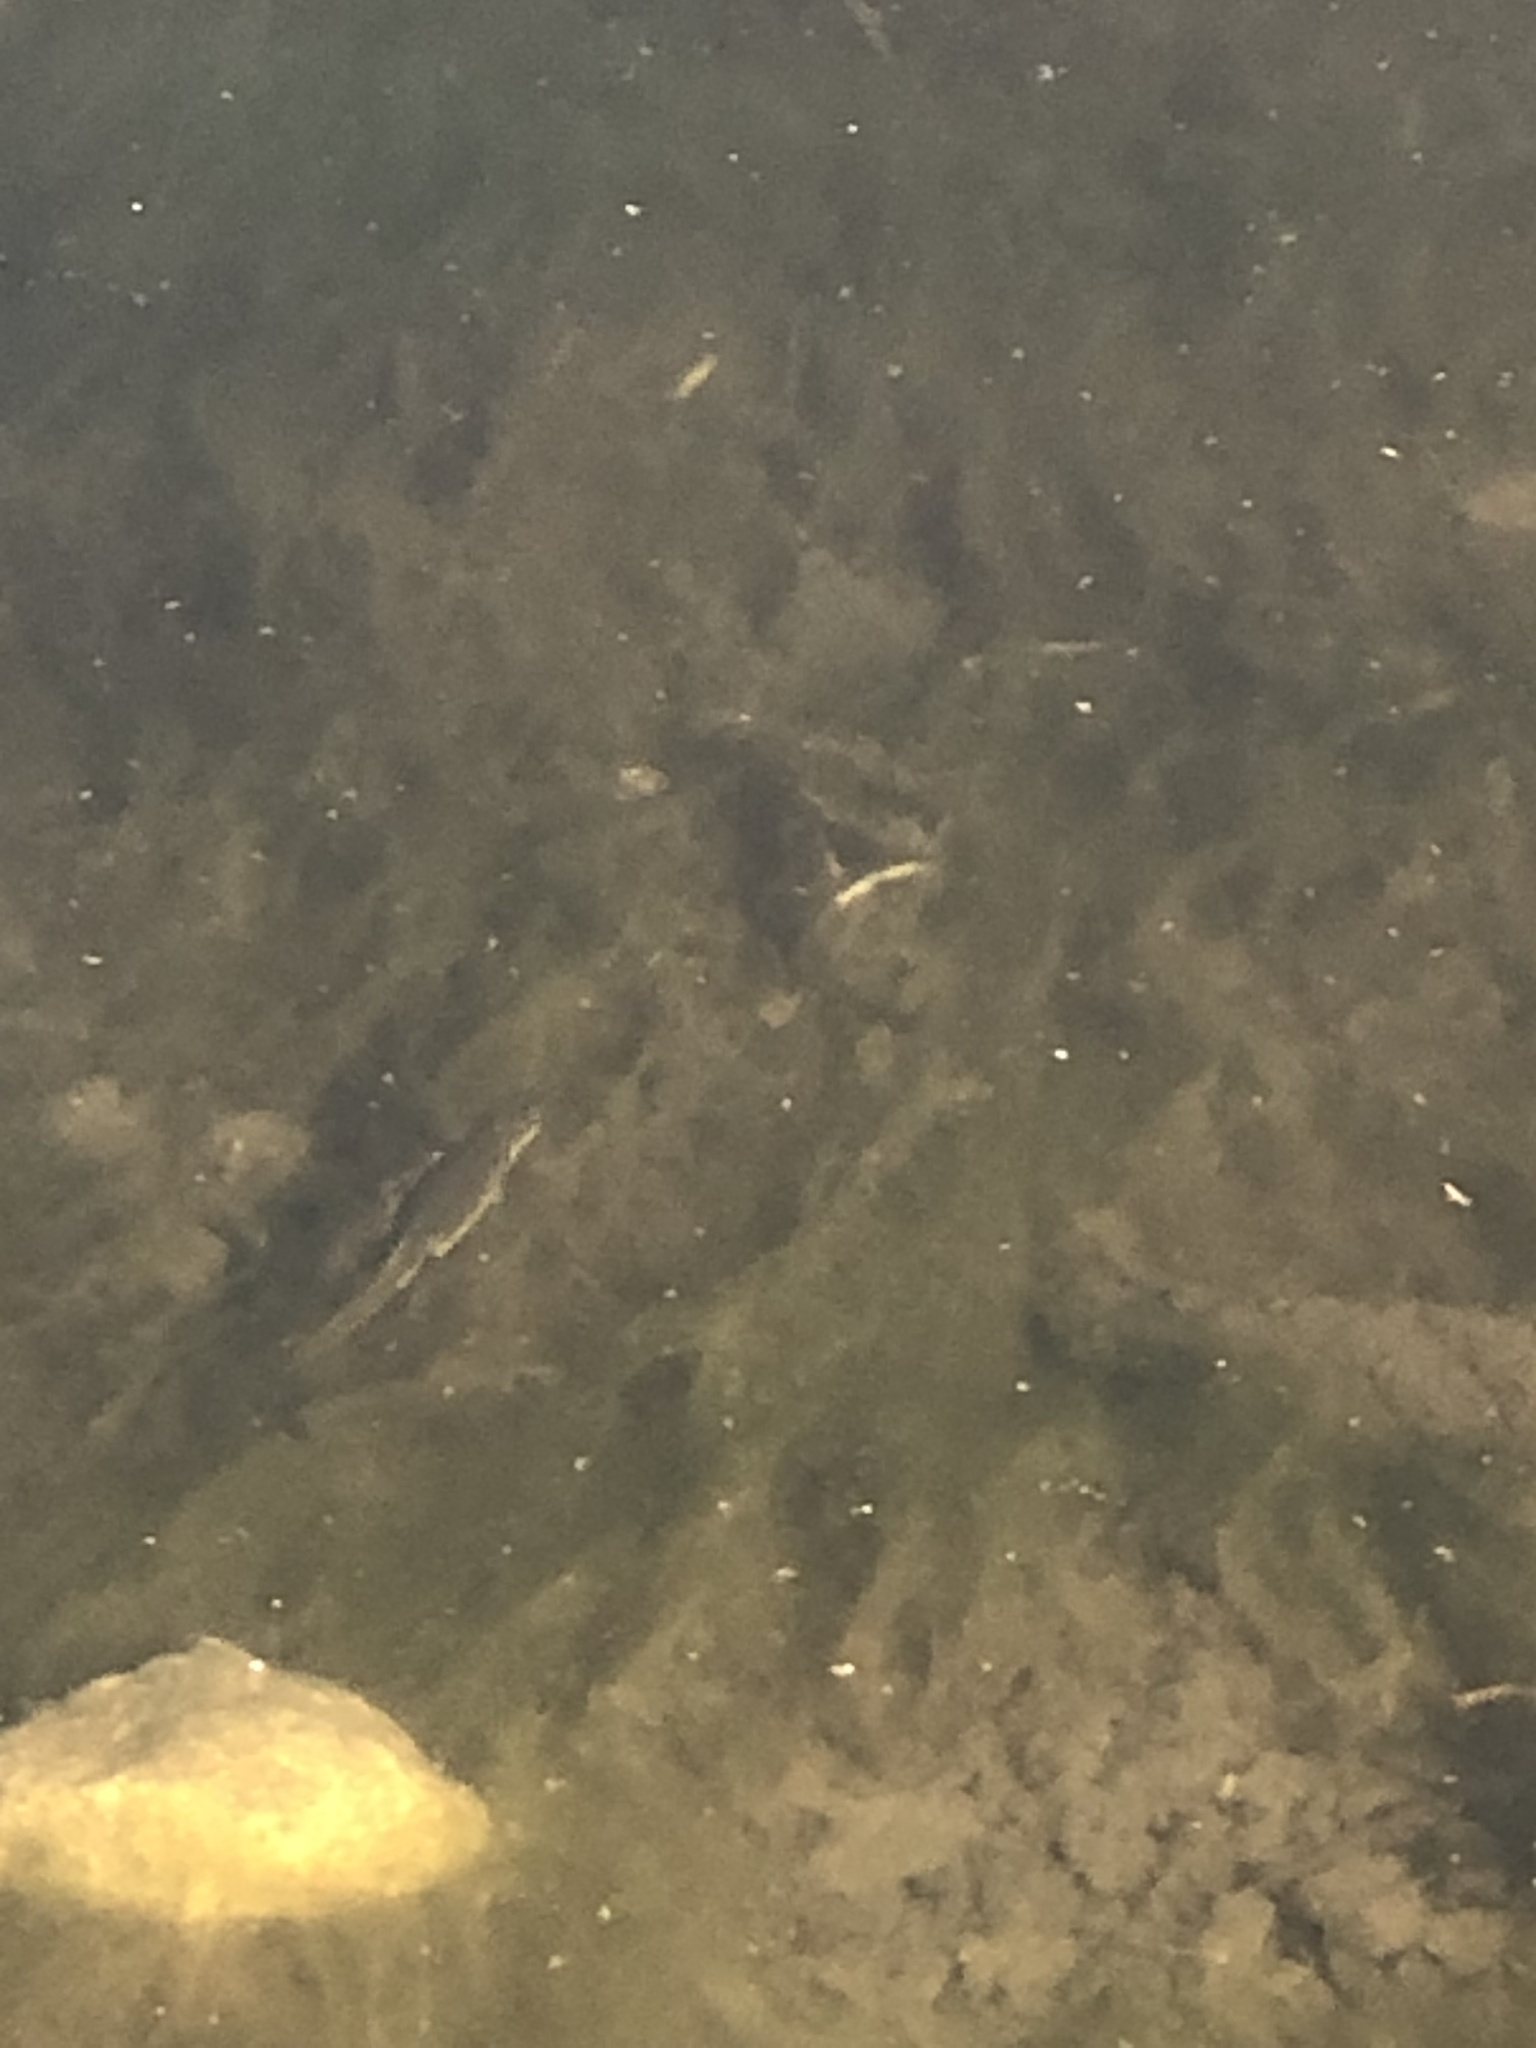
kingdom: Animalia
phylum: Chordata
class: Amphibia
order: Caudata
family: Salamandridae
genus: Notophthalmus
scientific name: Notophthalmus viridescens
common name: Eastern newt
